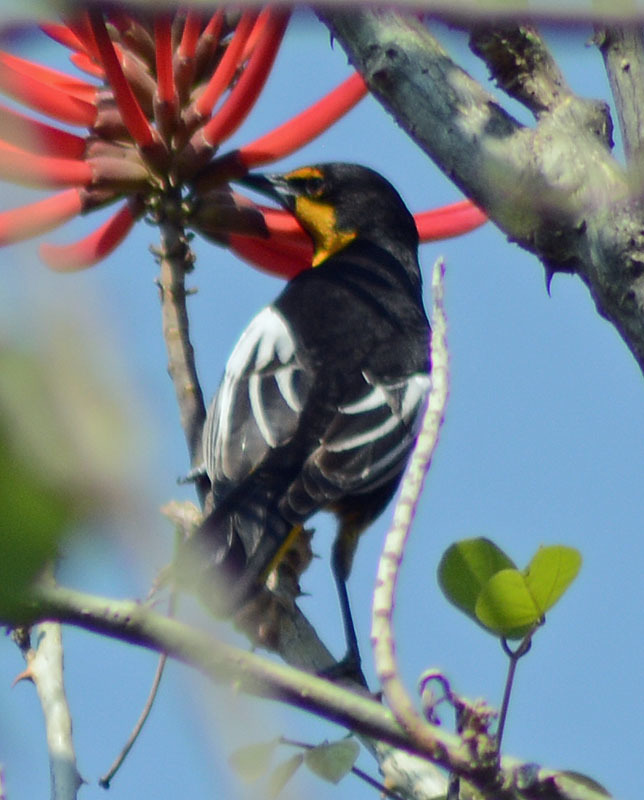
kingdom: Animalia
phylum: Chordata
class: Aves
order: Passeriformes
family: Icteridae
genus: Icterus
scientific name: Icterus abeillei
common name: Black-backed oriole
